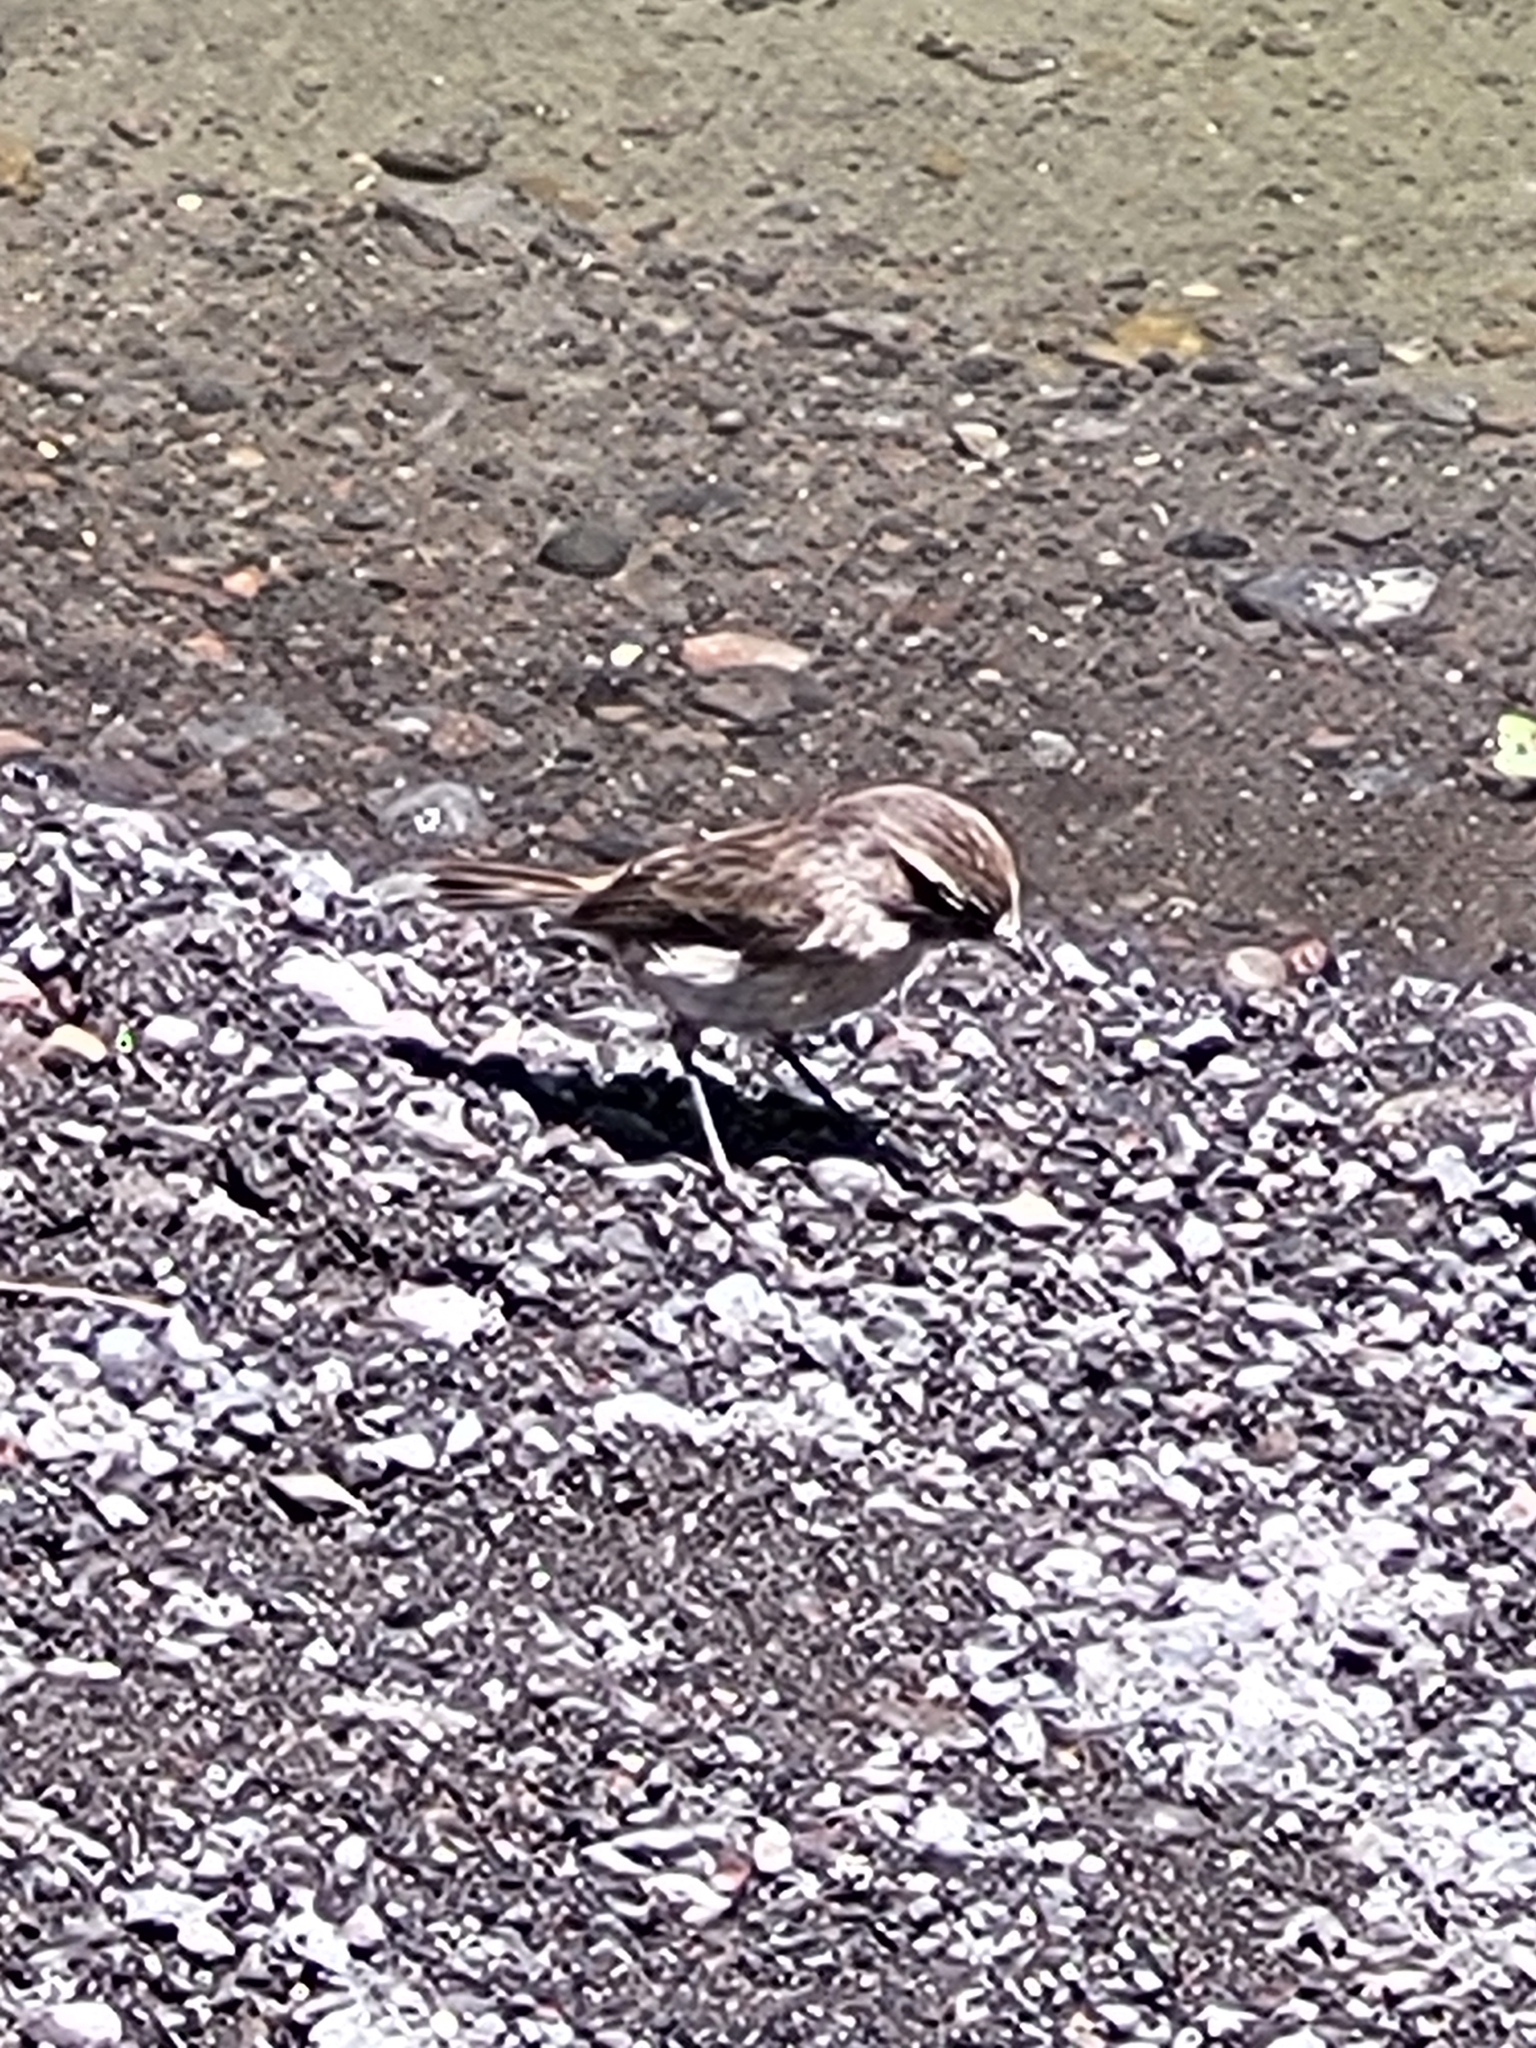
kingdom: Animalia
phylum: Chordata
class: Aves
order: Passeriformes
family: Muscicapidae
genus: Saxicola
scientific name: Saxicola tectes
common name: Reunion stonechat
